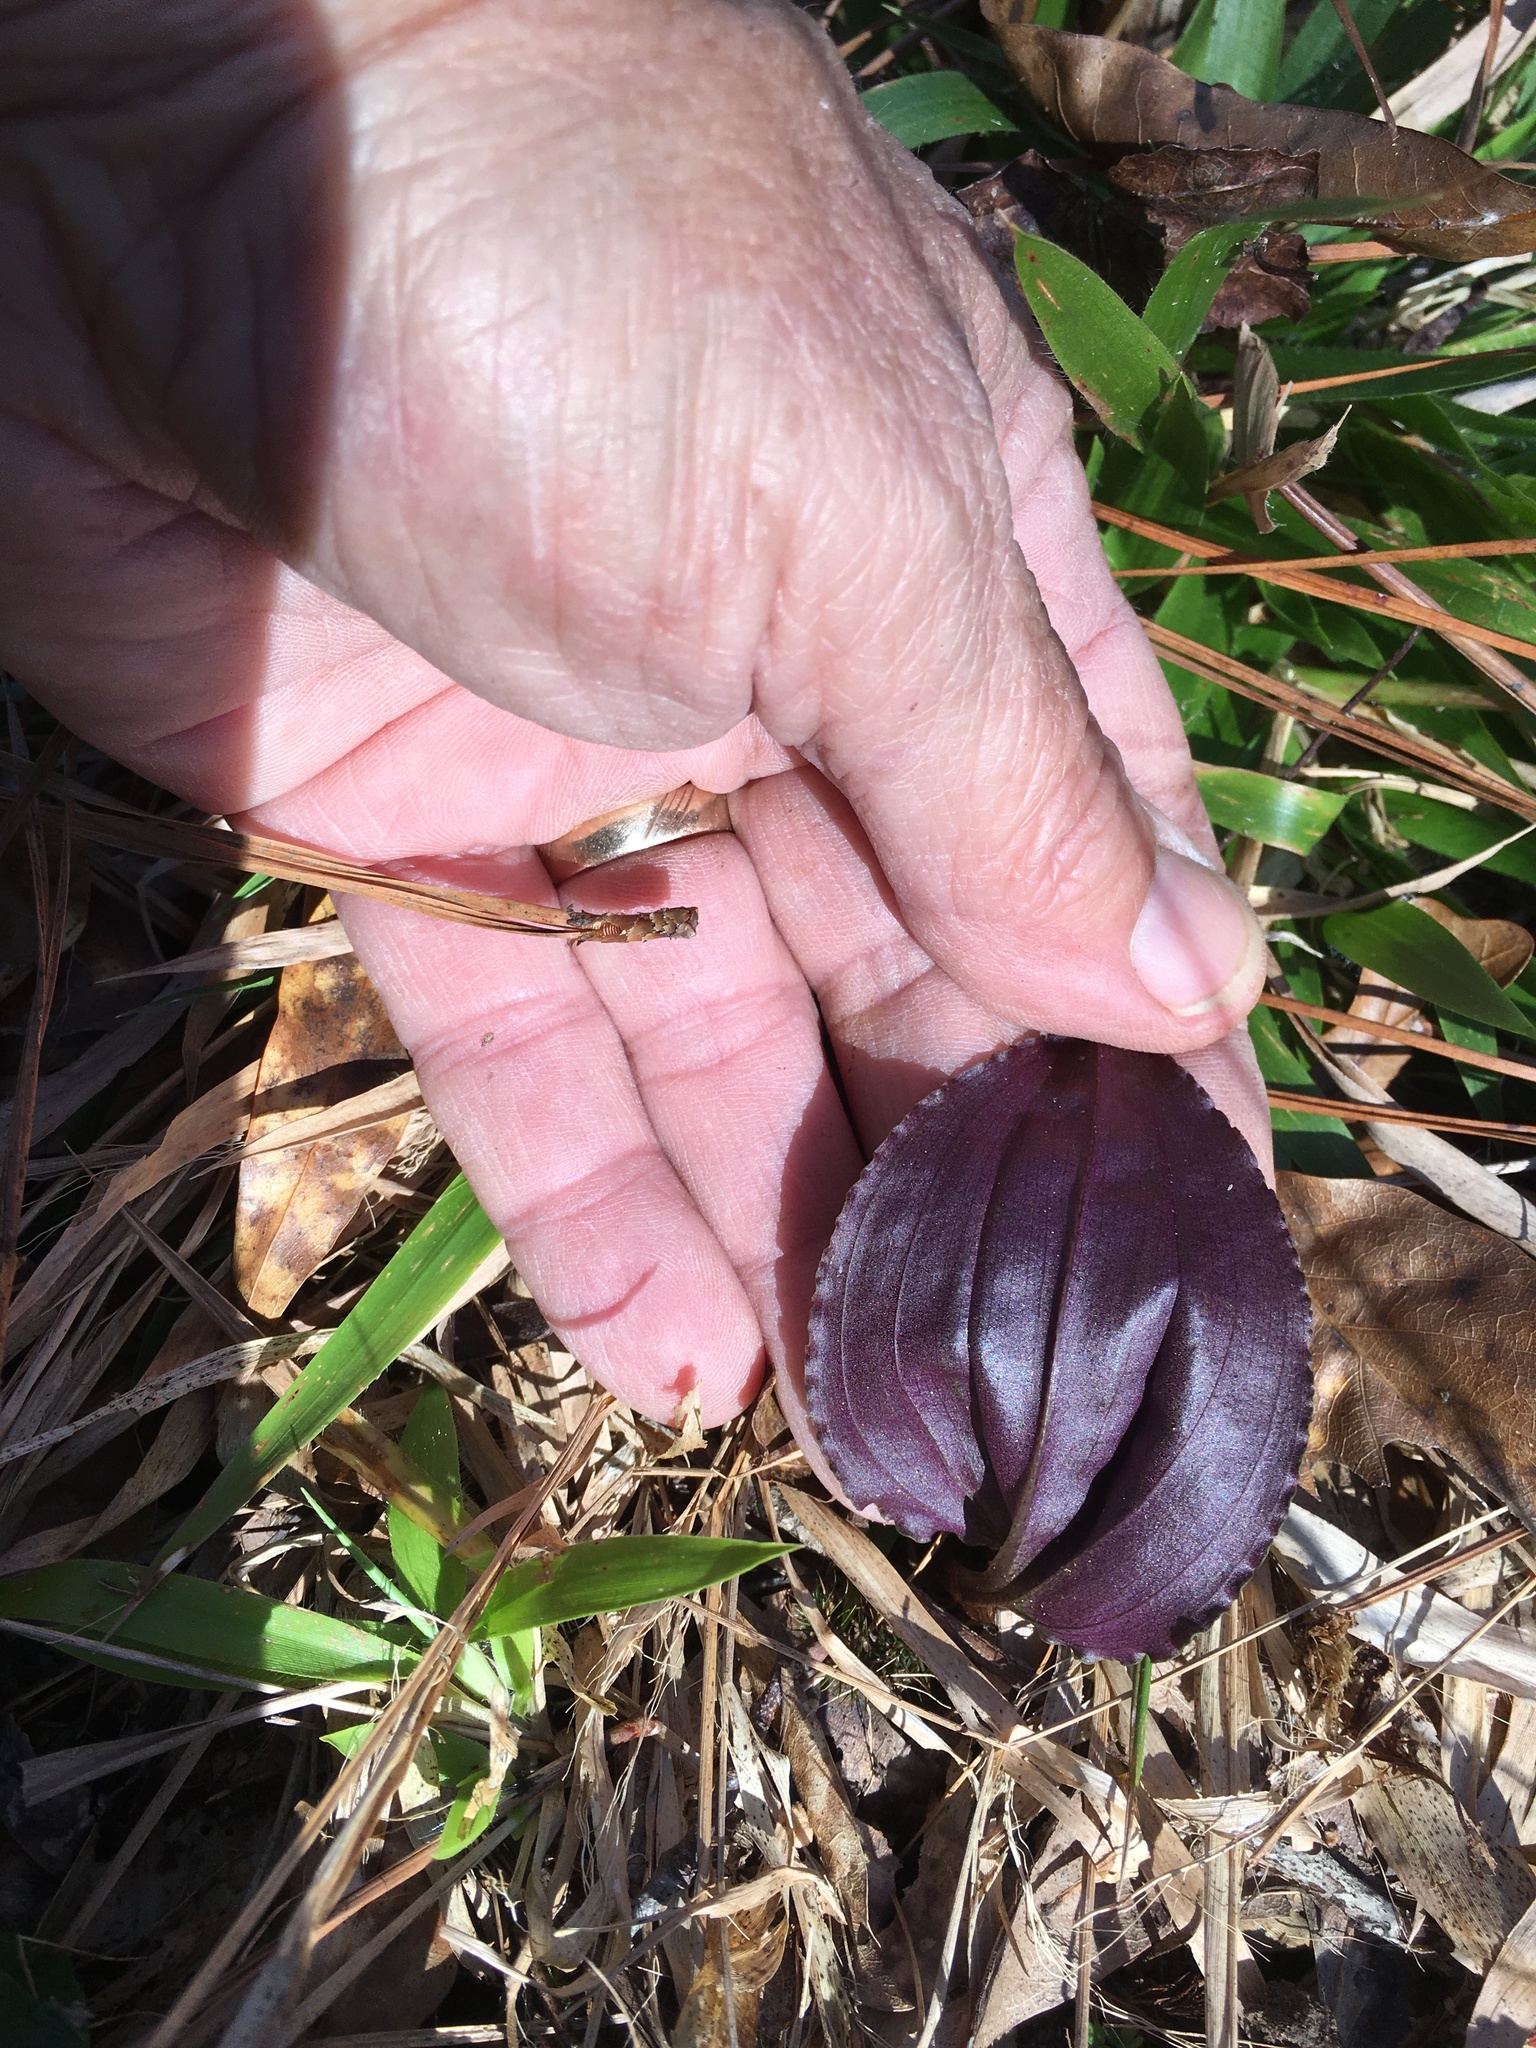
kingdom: Plantae
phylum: Tracheophyta
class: Liliopsida
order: Asparagales
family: Orchidaceae
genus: Tipularia
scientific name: Tipularia discolor
